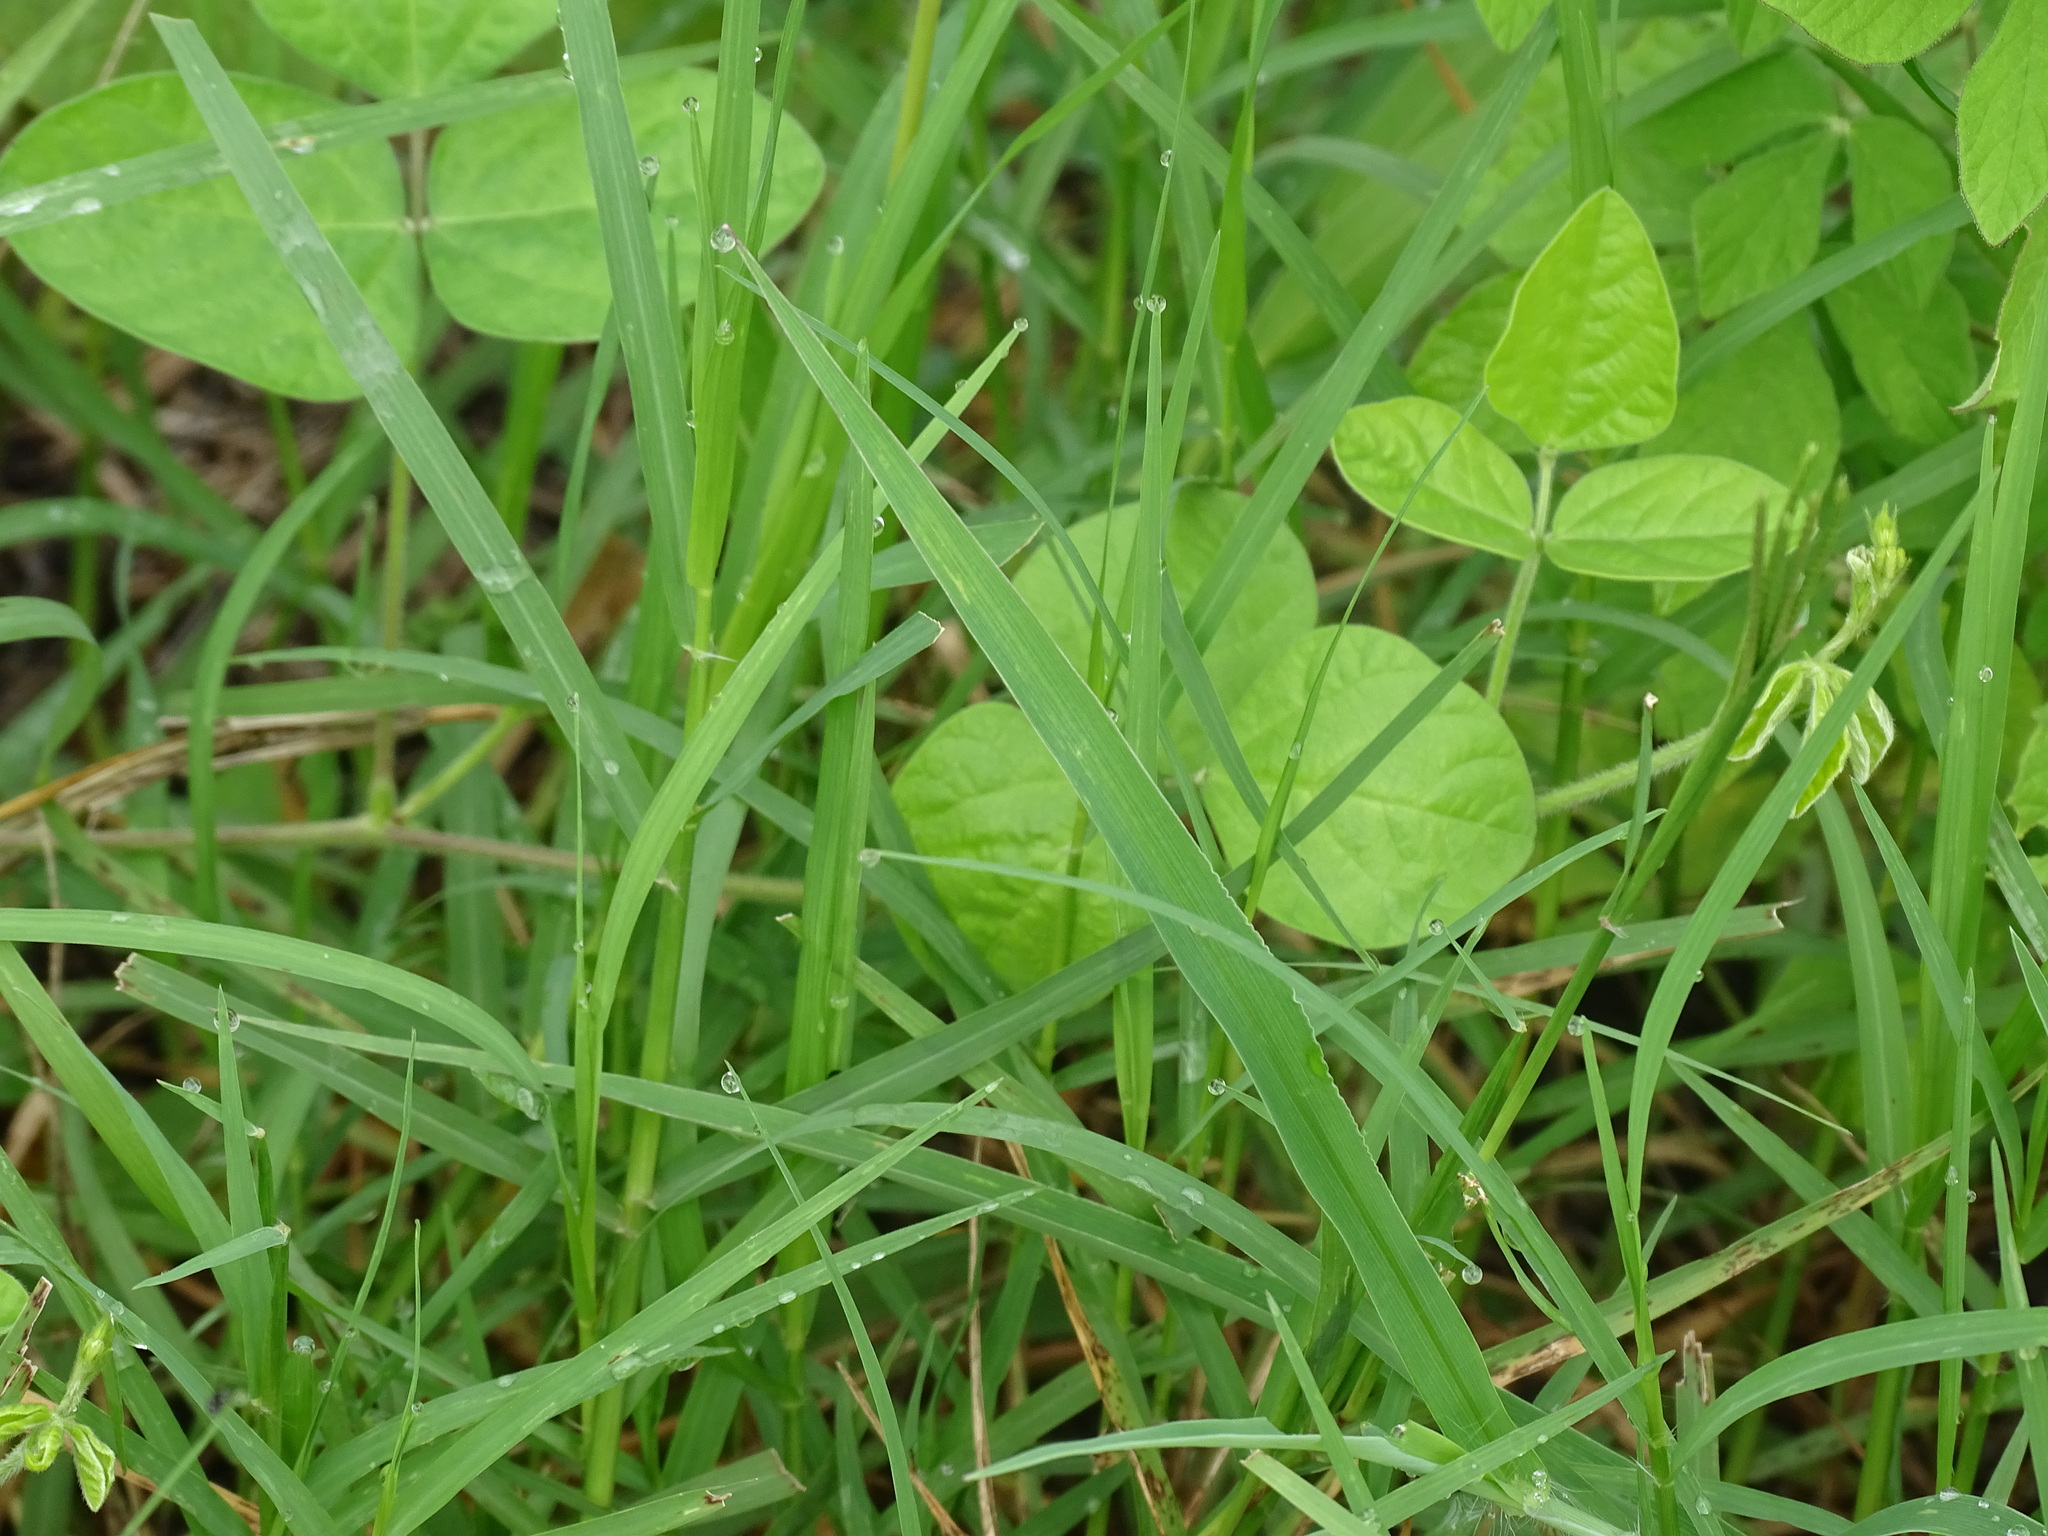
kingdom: Plantae
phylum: Tracheophyta
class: Liliopsida
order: Poales
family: Poaceae
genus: Setaria
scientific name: Setaria liebmannii
